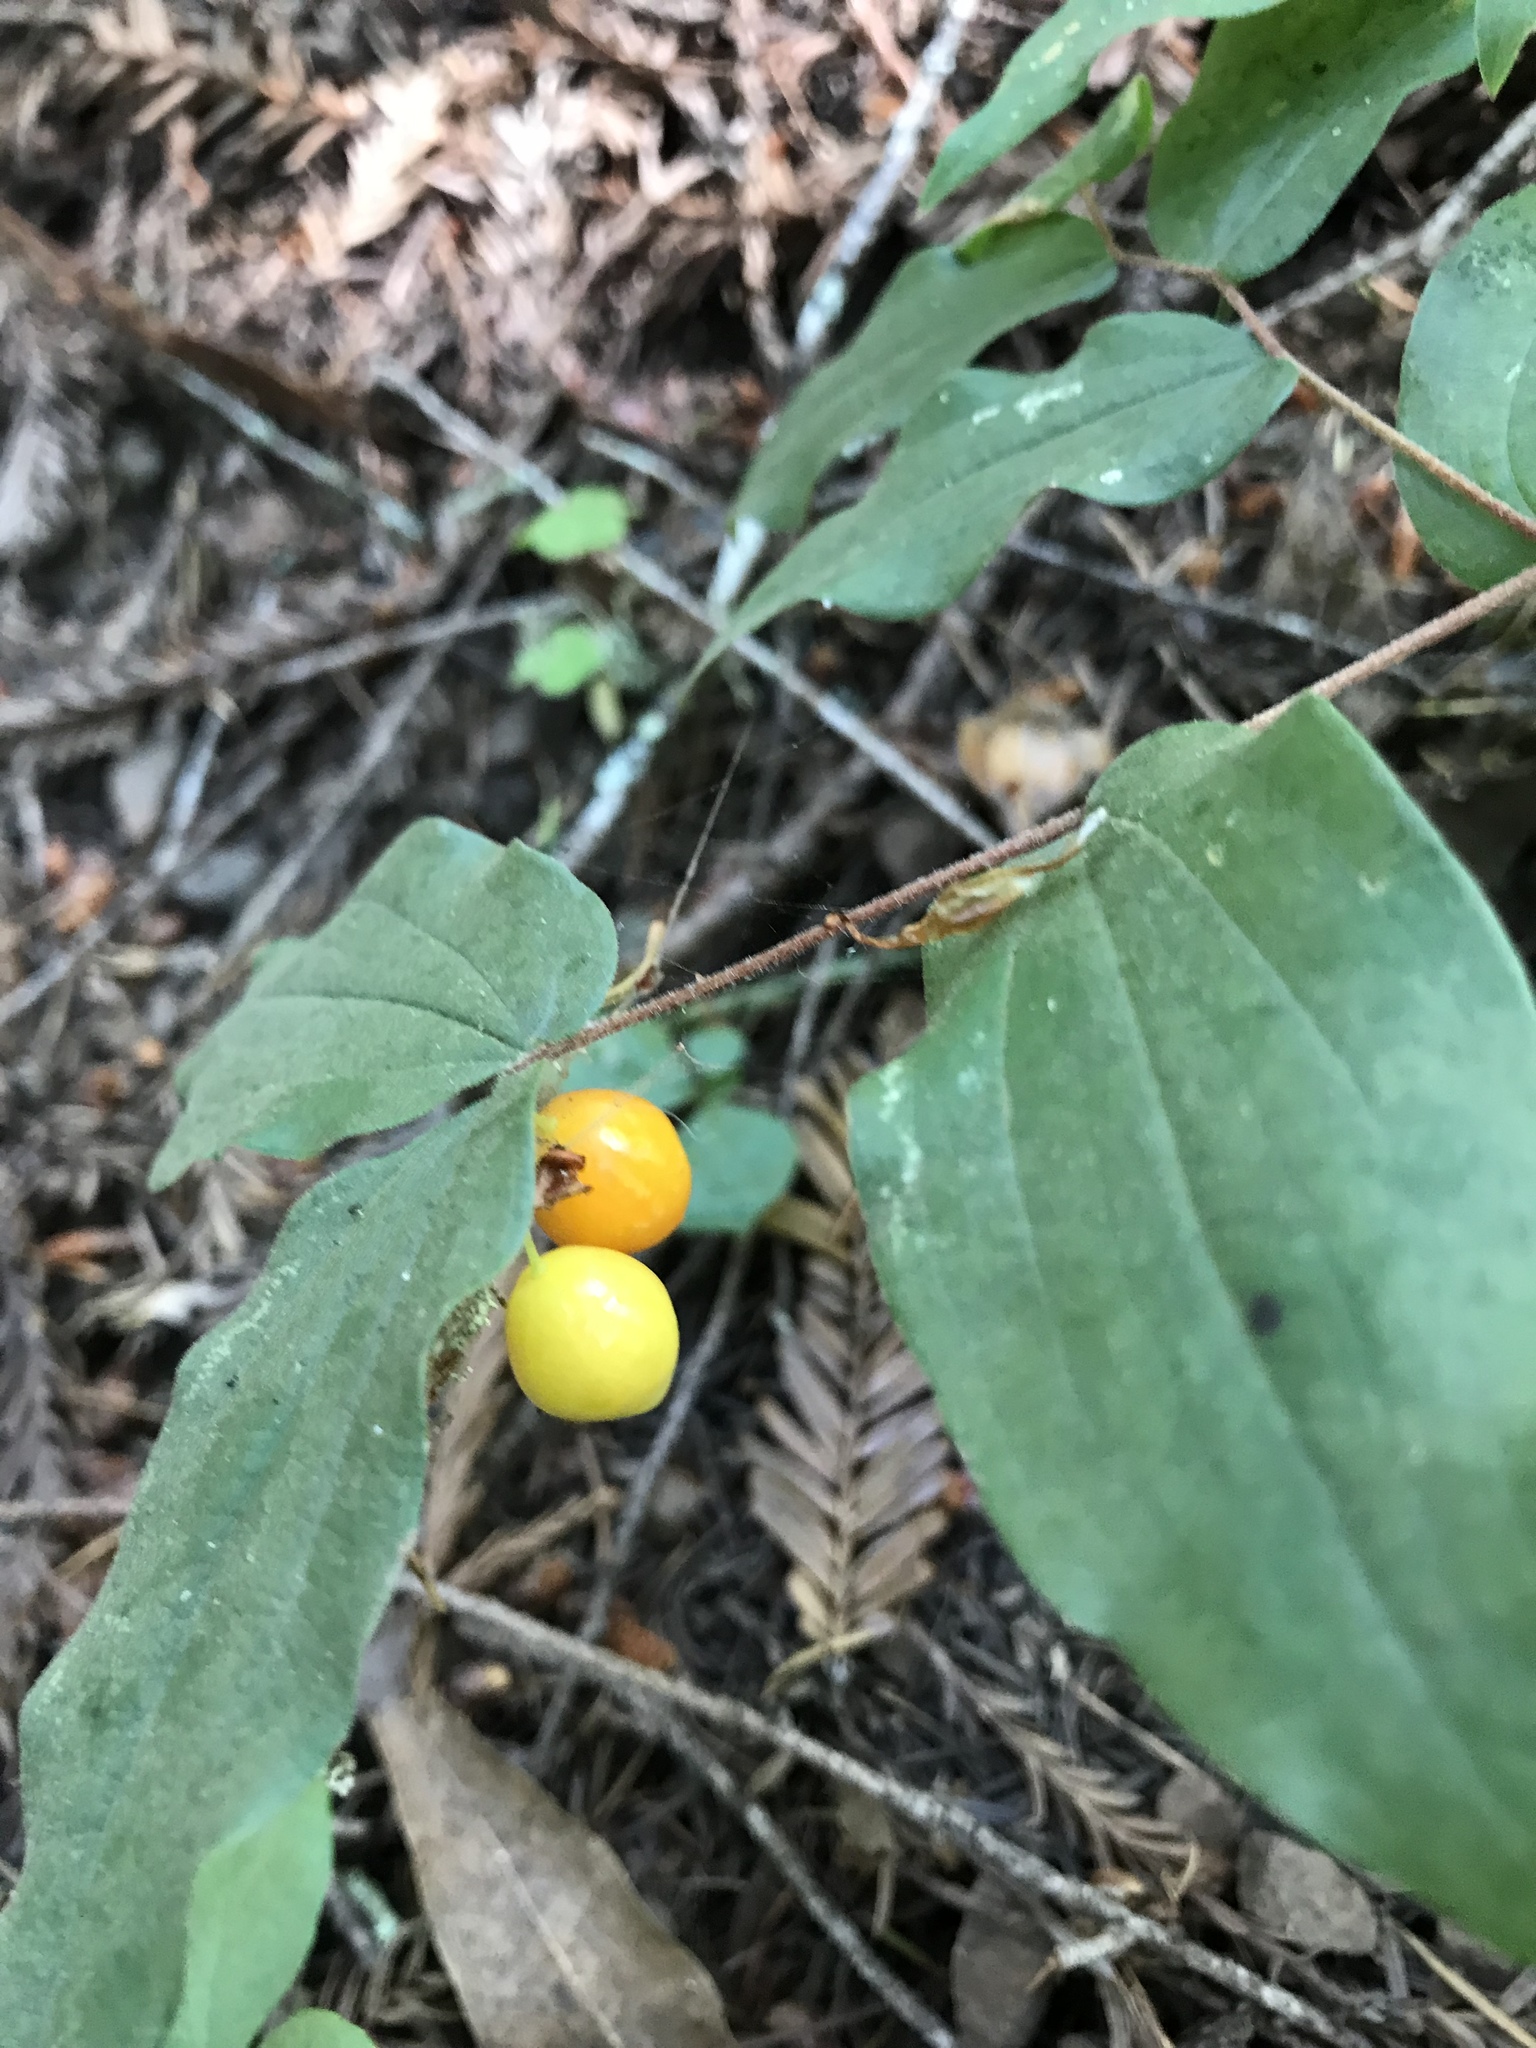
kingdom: Plantae
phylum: Tracheophyta
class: Liliopsida
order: Liliales
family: Liliaceae
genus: Prosartes
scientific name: Prosartes hookeri
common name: Fairy-bells
